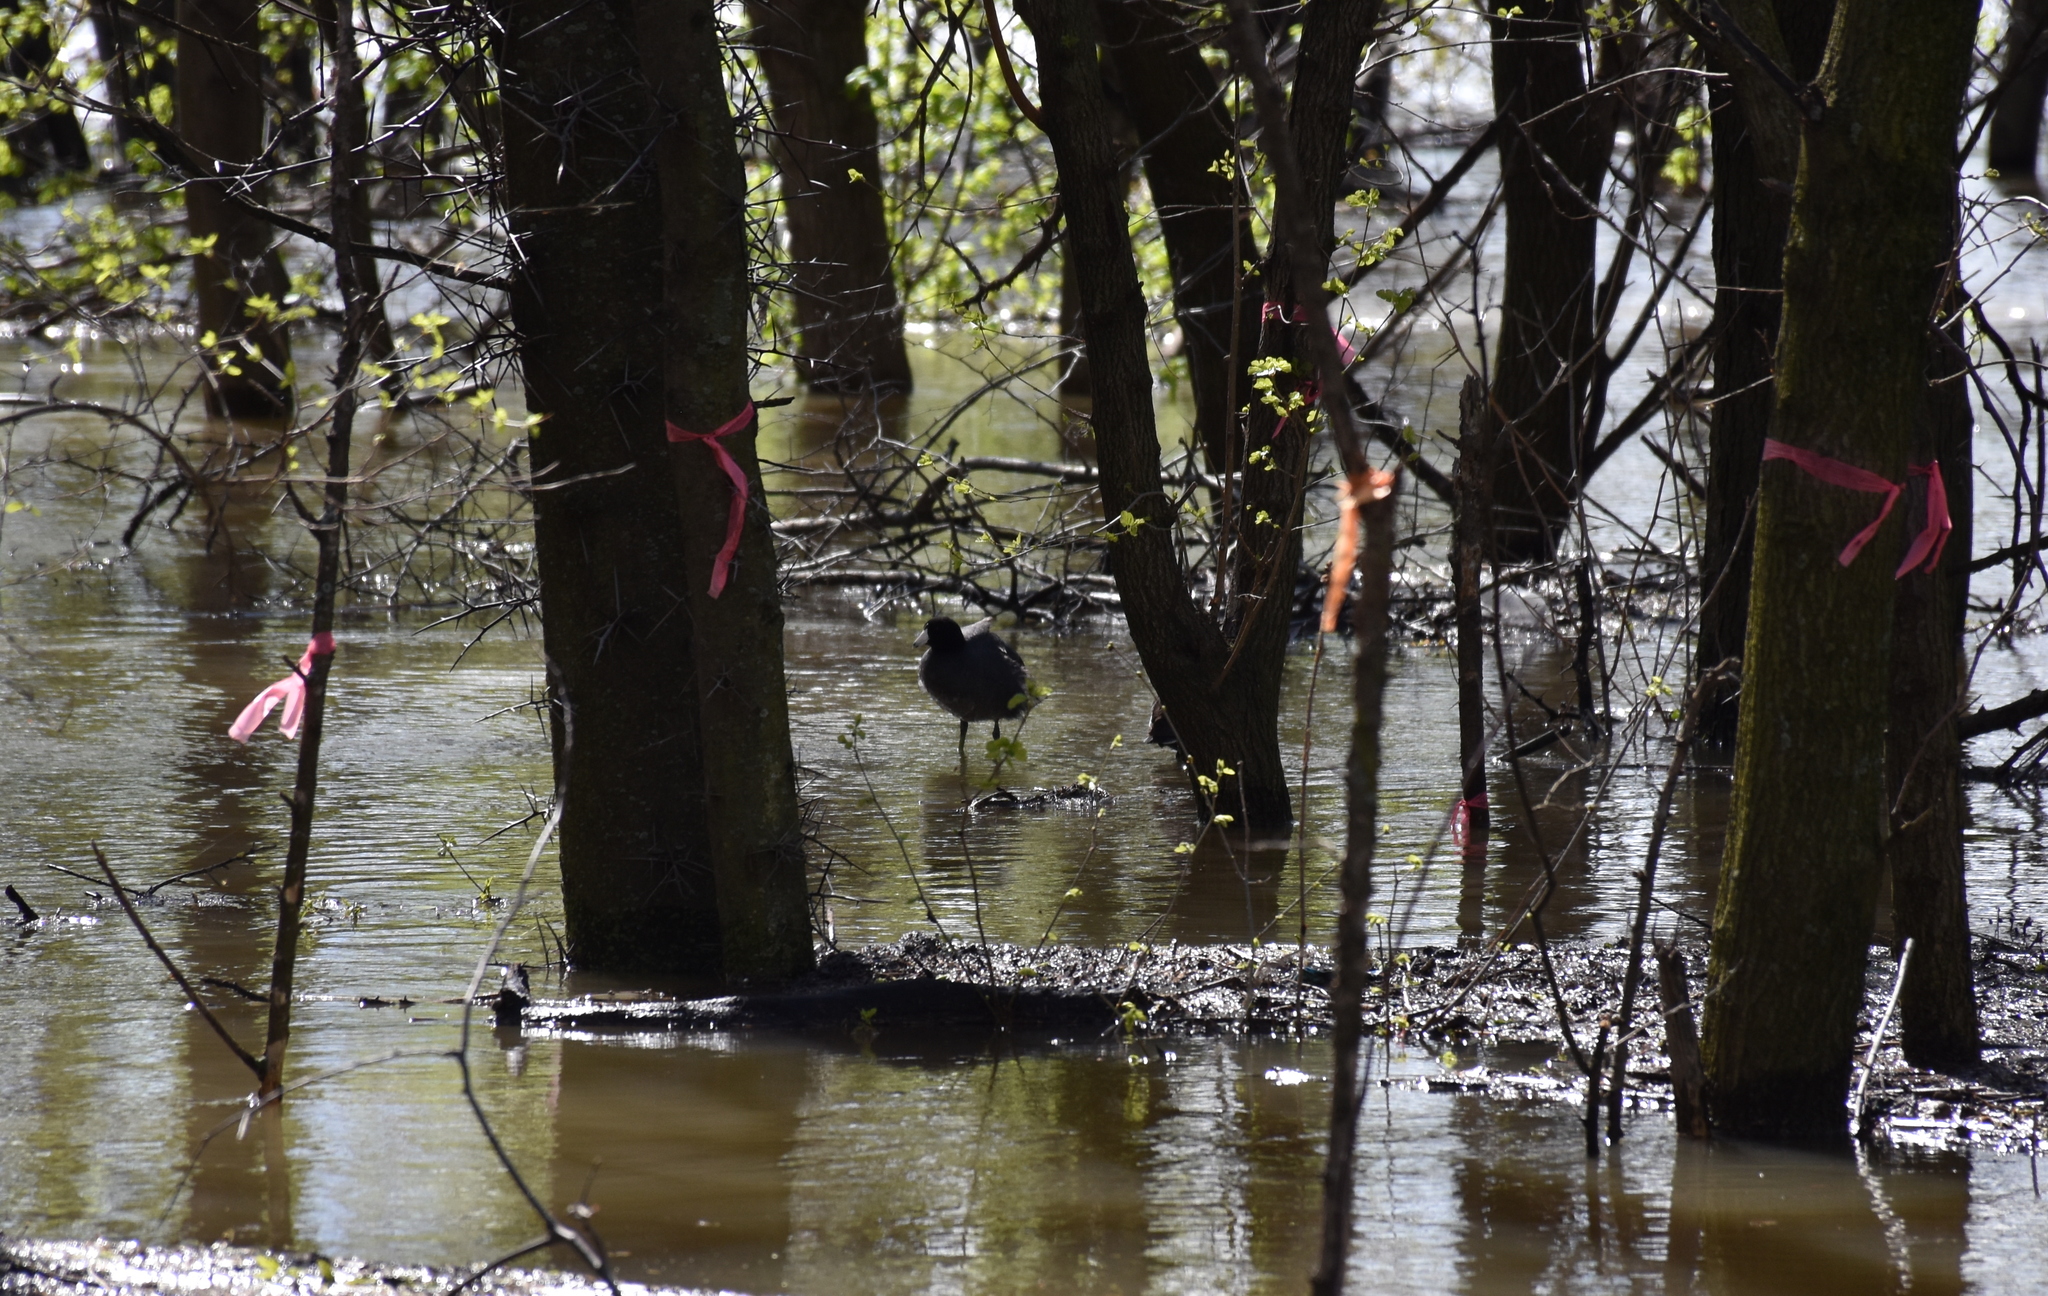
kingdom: Animalia
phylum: Chordata
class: Aves
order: Gruiformes
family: Rallidae
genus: Fulica
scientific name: Fulica americana
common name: American coot
